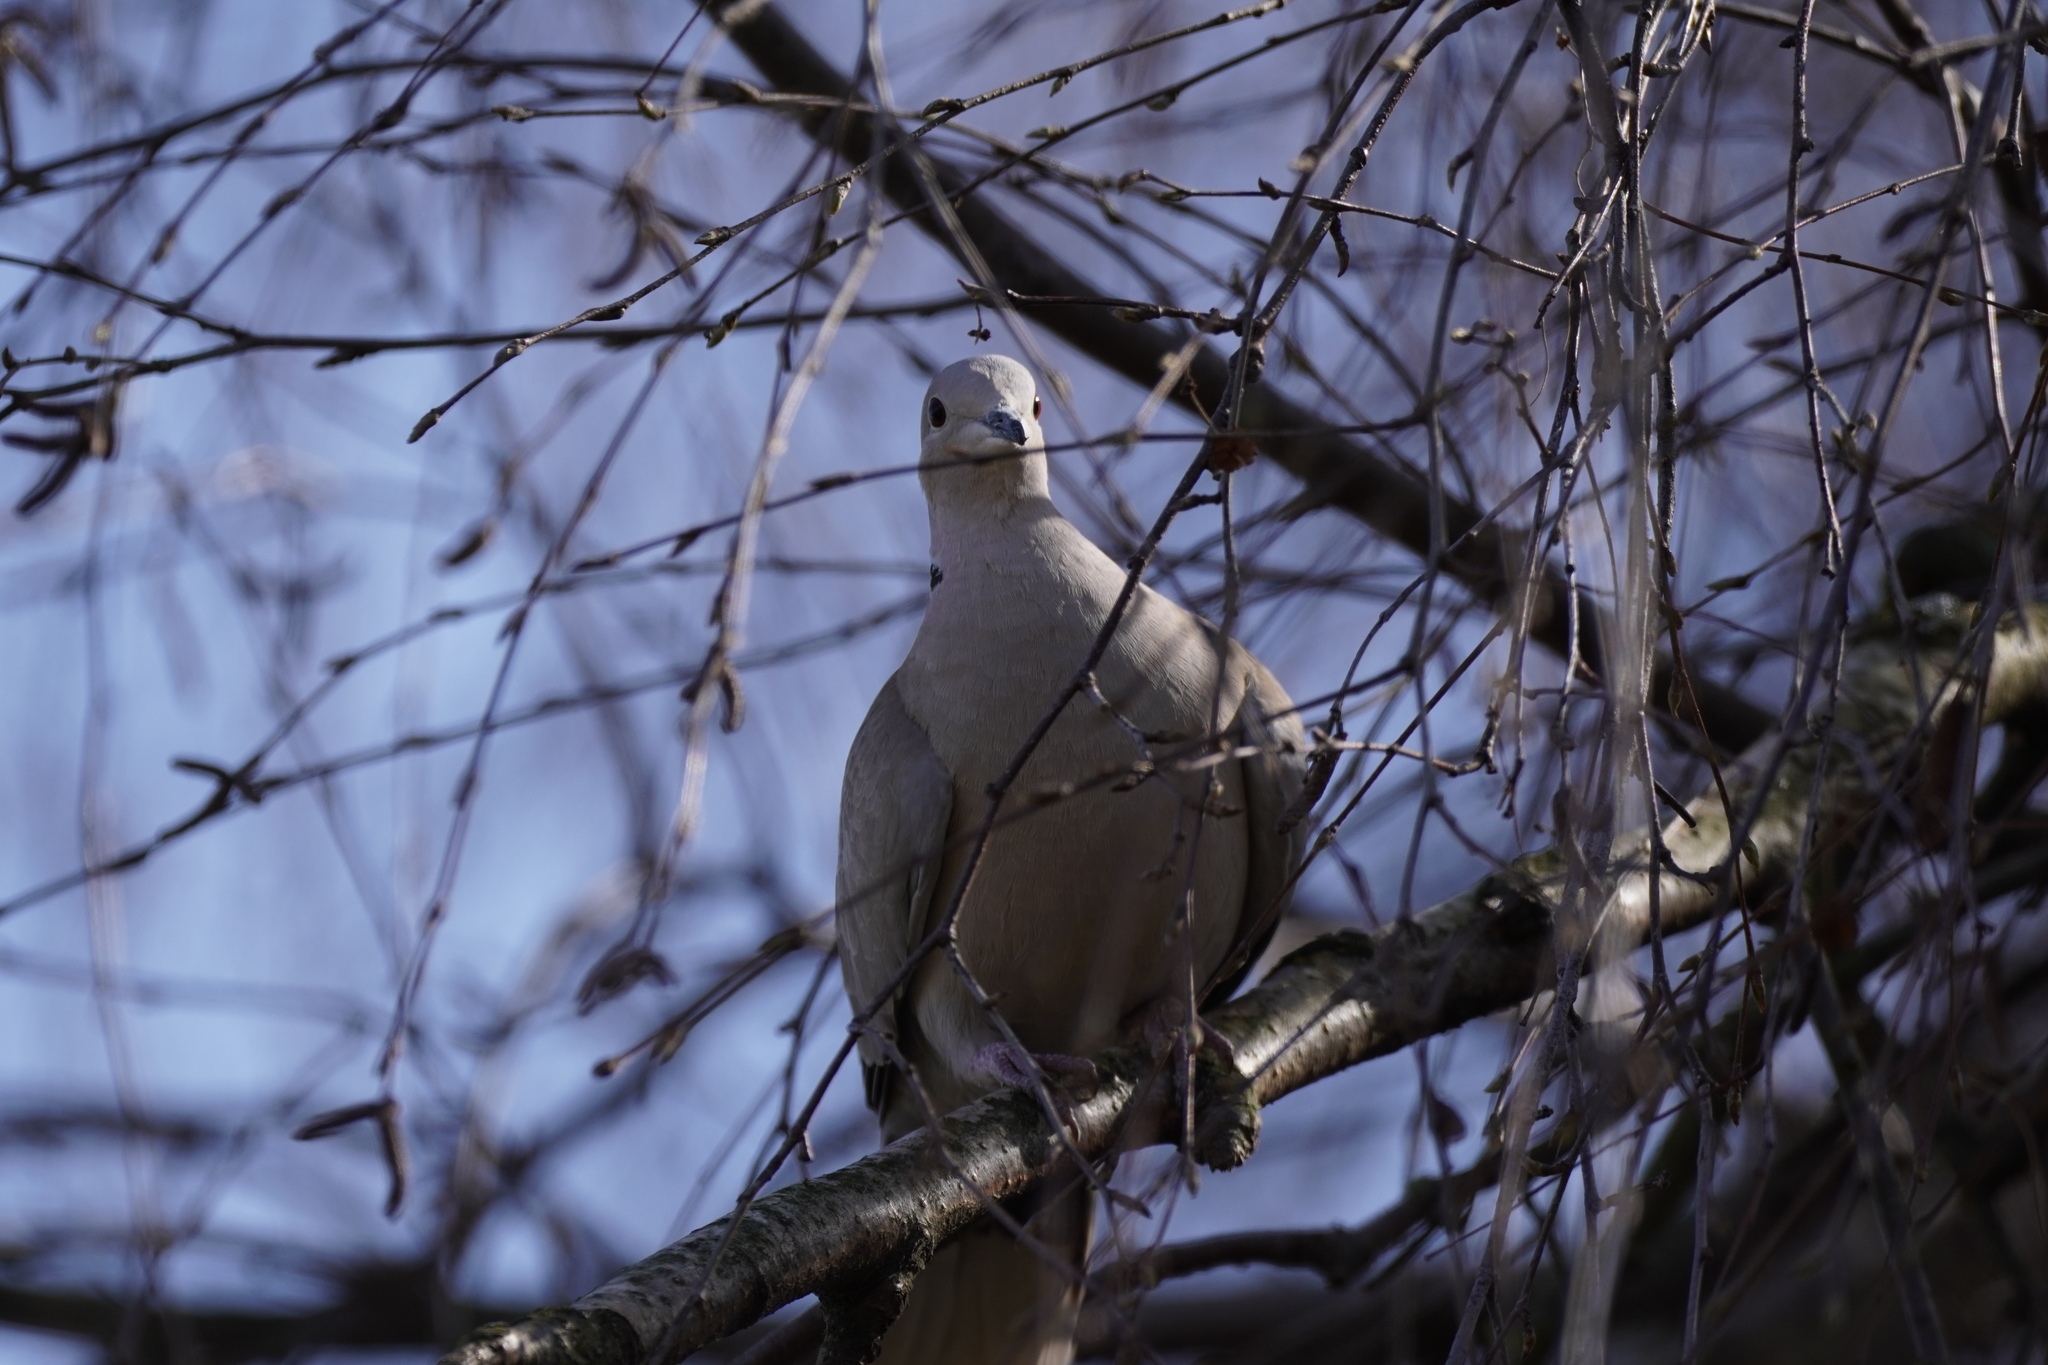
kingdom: Animalia
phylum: Chordata
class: Aves
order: Columbiformes
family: Columbidae
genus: Streptopelia
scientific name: Streptopelia decaocto
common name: Eurasian collared dove
